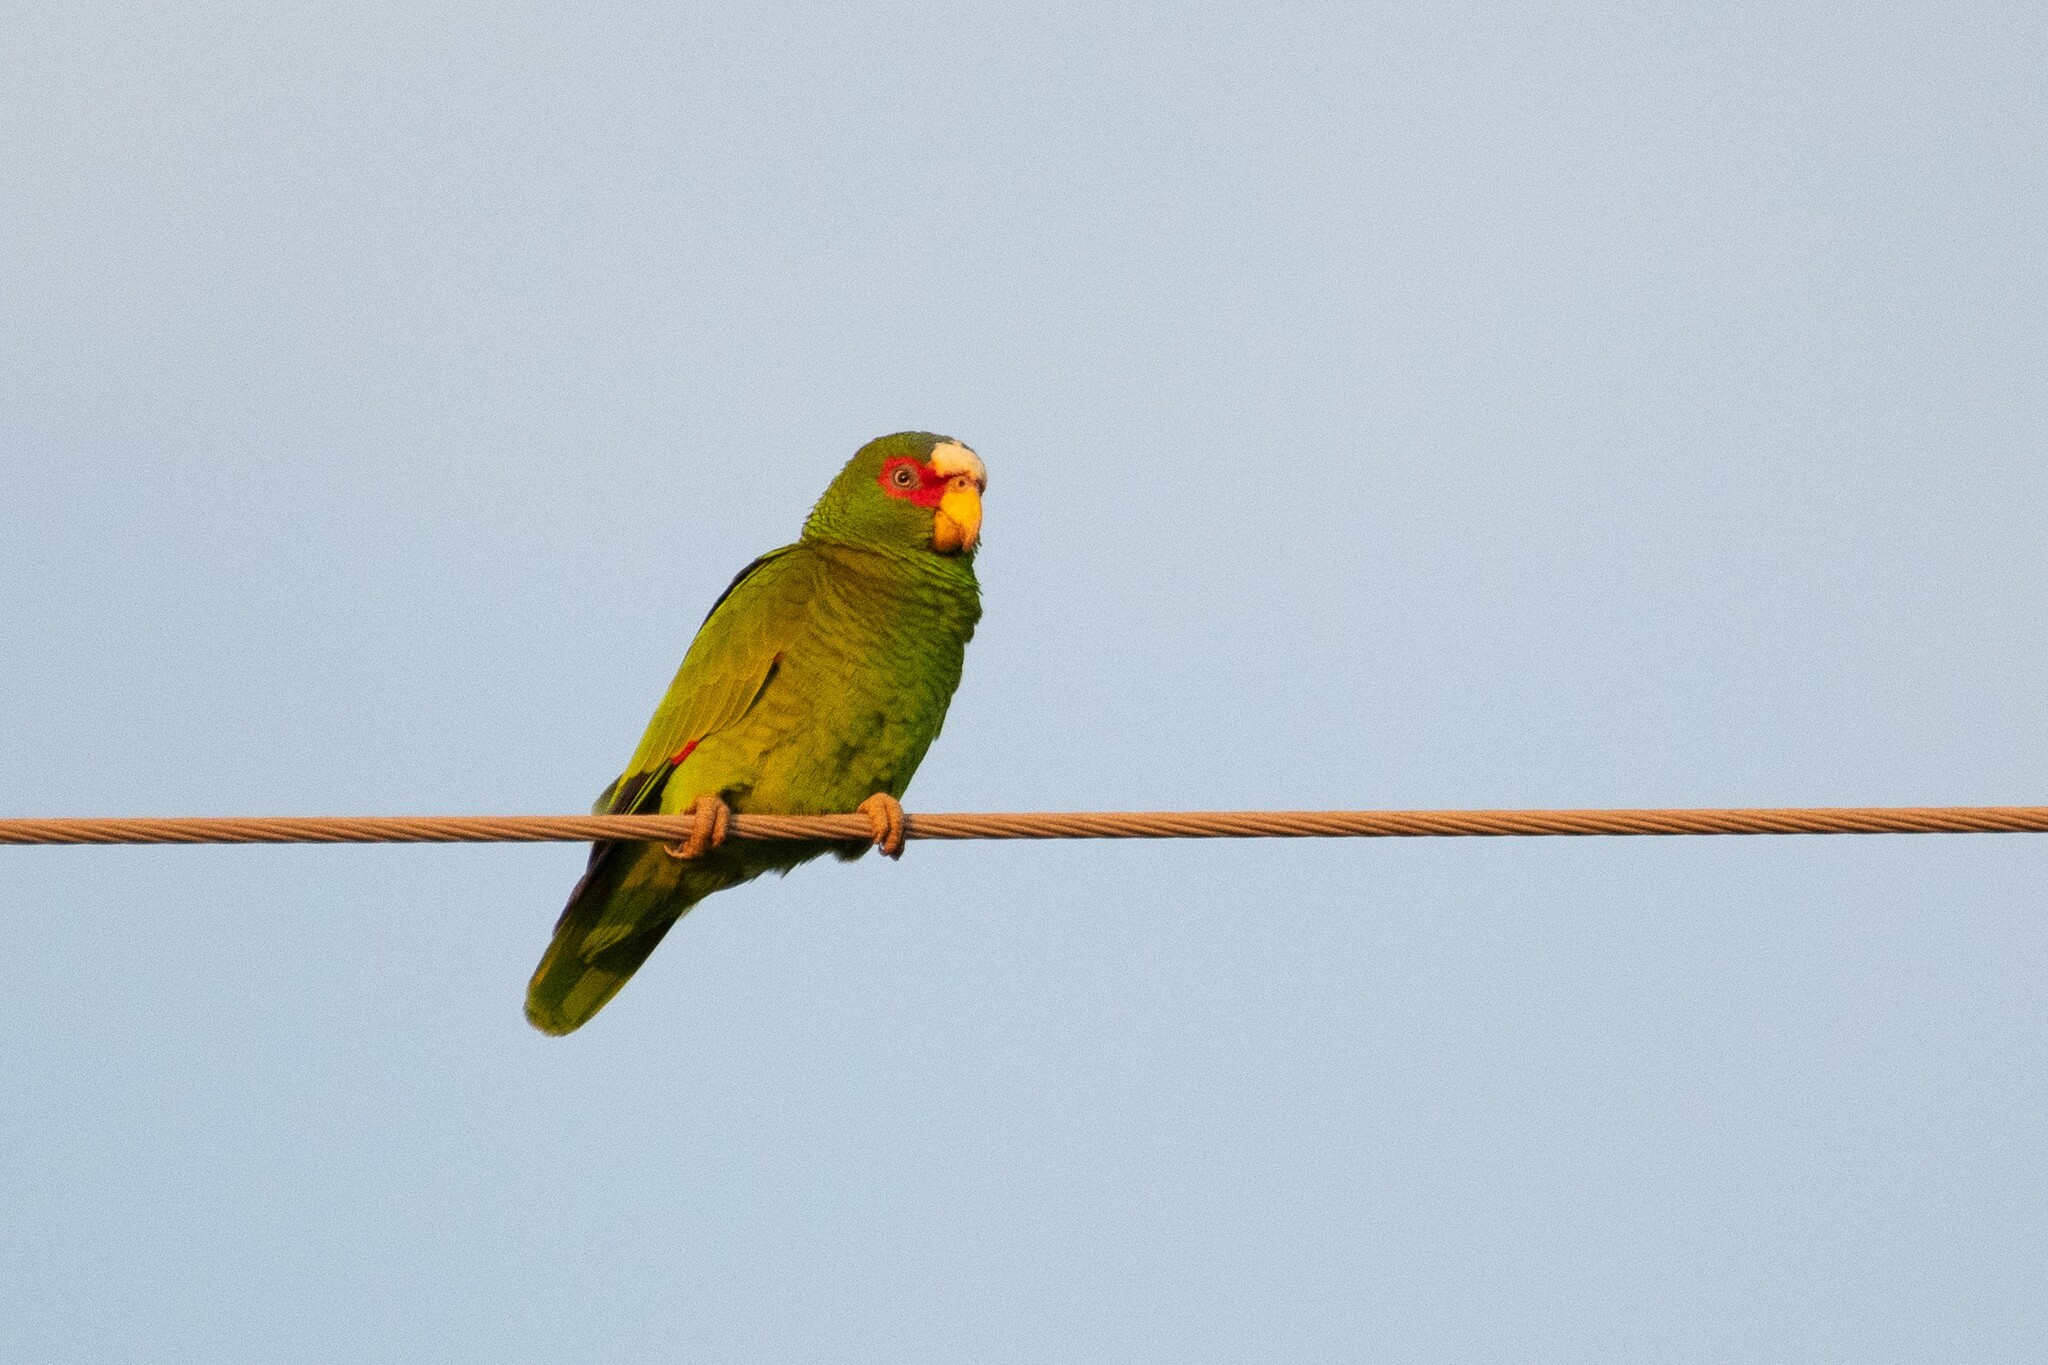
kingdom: Animalia
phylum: Chordata
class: Aves
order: Psittaciformes
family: Psittacidae
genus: Amazona
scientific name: Amazona albifrons
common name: White-fronted amazon
